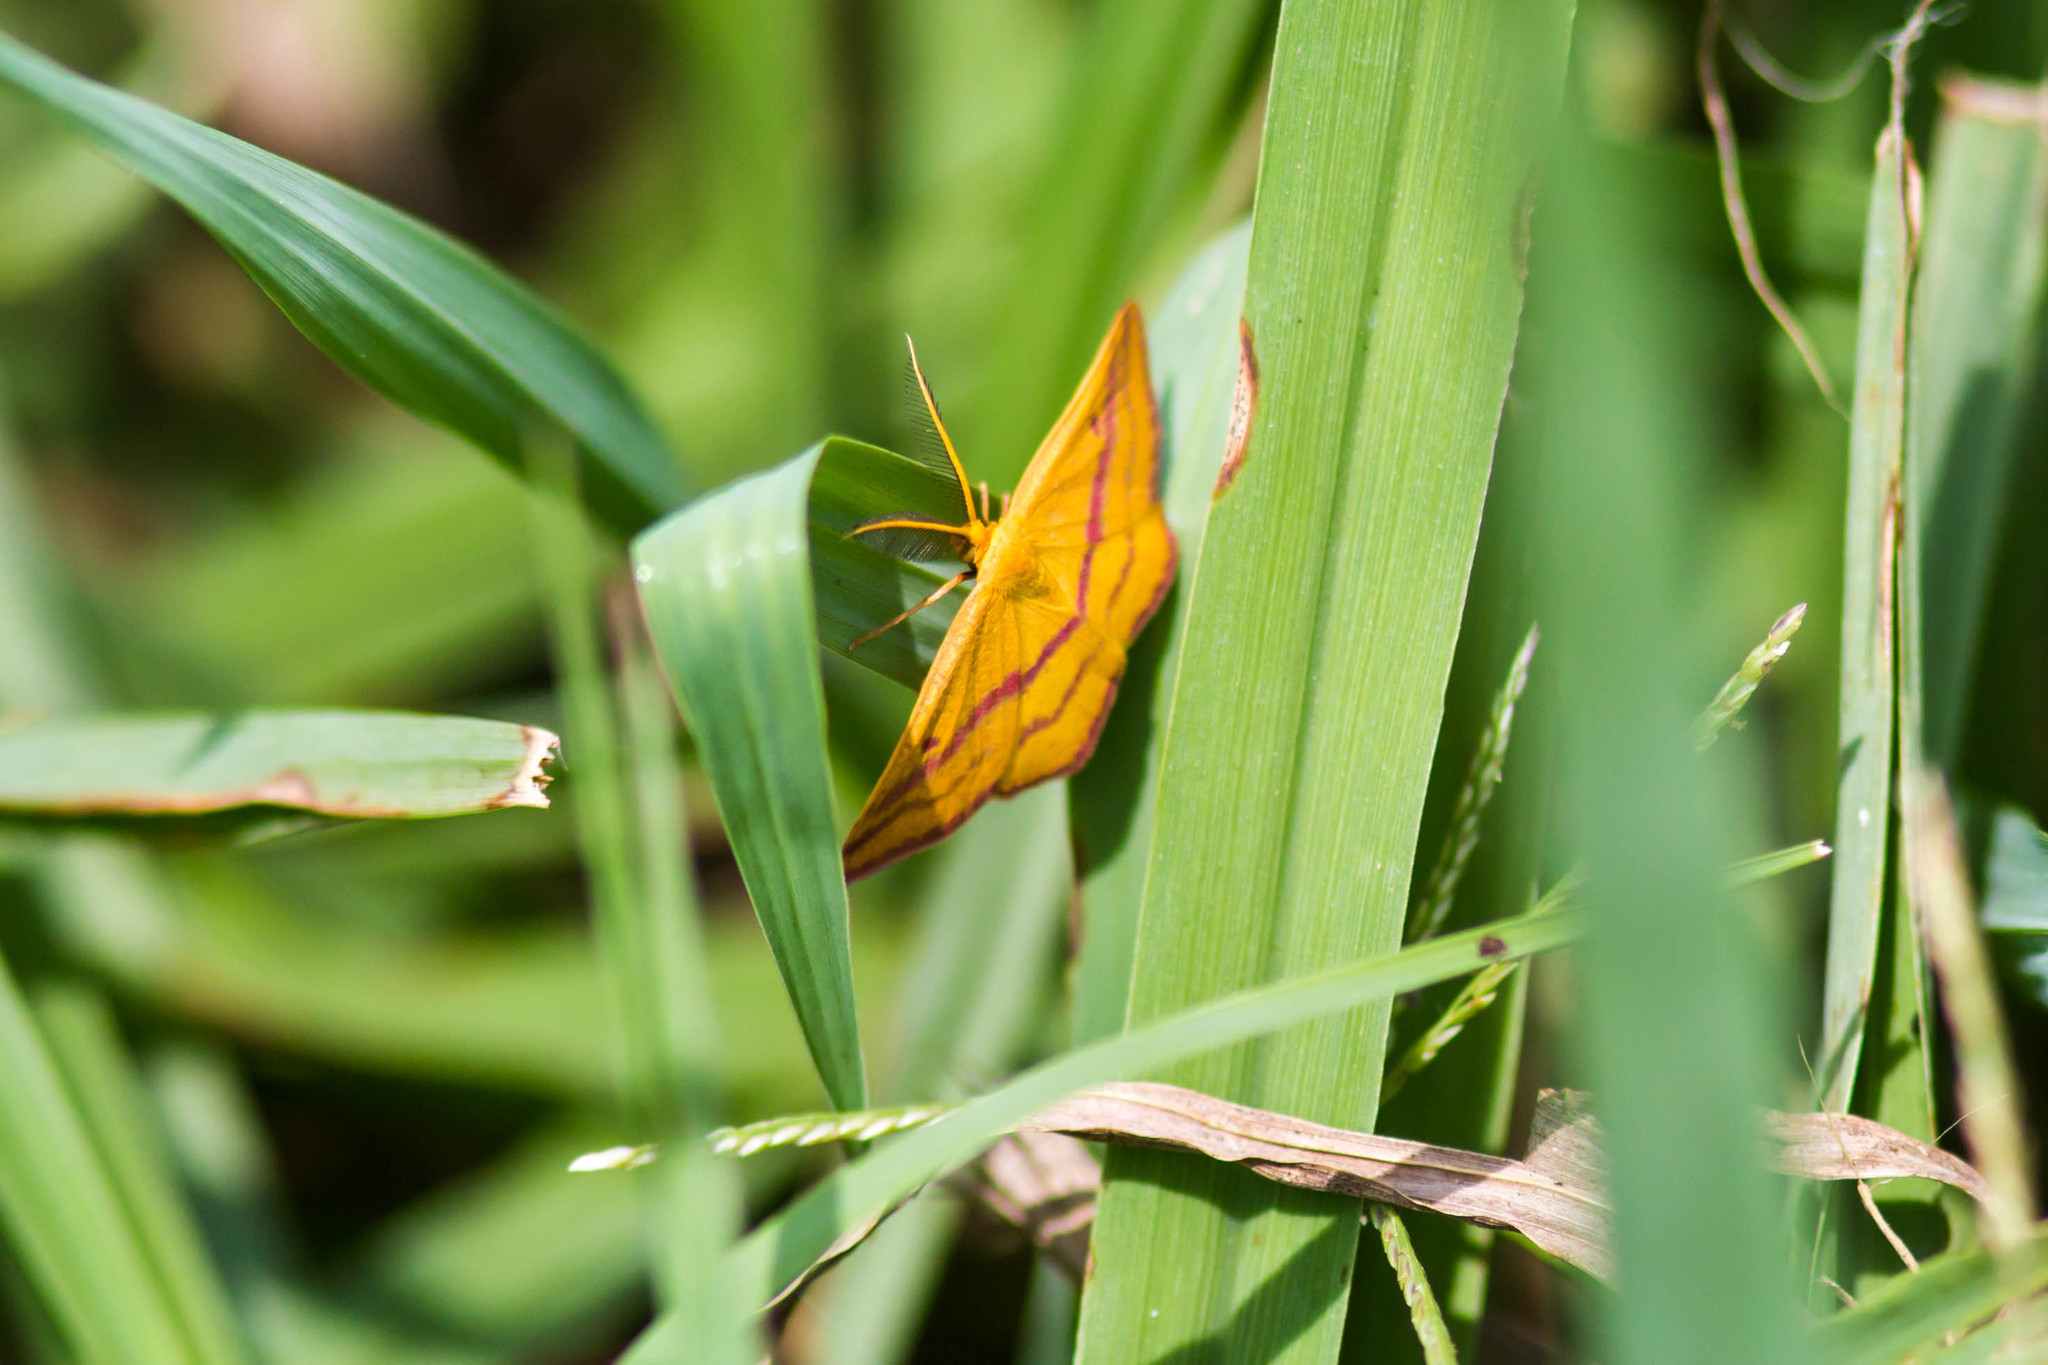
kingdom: Animalia
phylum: Arthropoda
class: Insecta
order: Lepidoptera
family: Geometridae
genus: Haematopis
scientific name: Haematopis grataria
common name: Chickweed geometer
